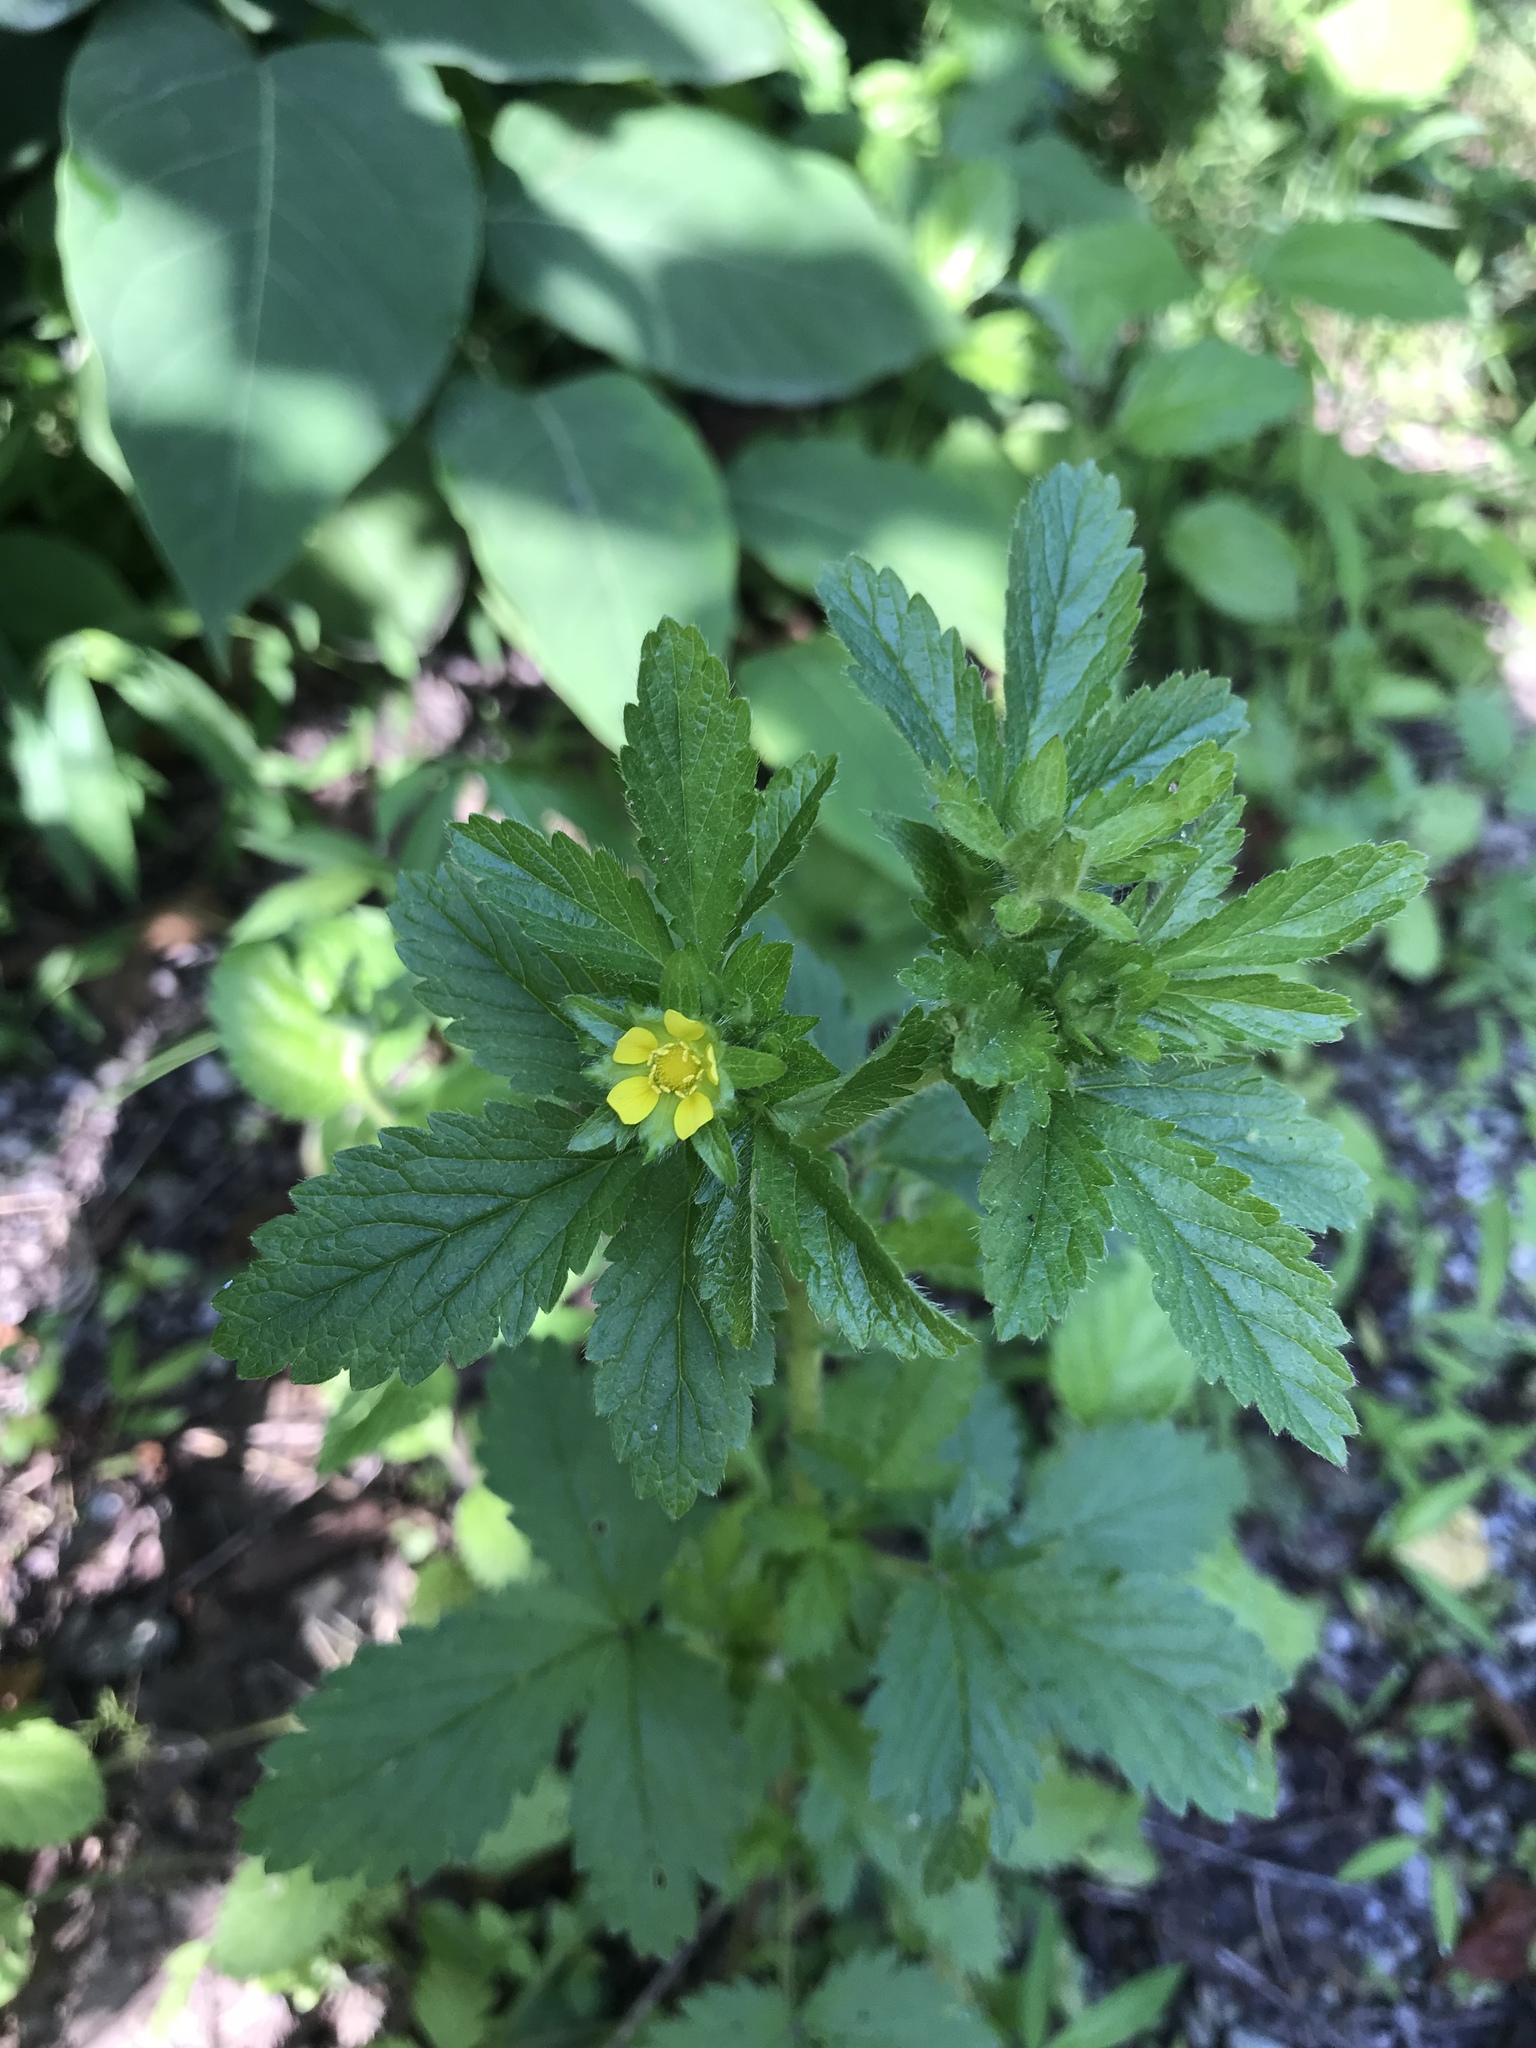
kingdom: Plantae
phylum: Tracheophyta
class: Magnoliopsida
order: Rosales
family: Rosaceae
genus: Potentilla
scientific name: Potentilla norvegica
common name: Ternate-leaved cinquefoil
